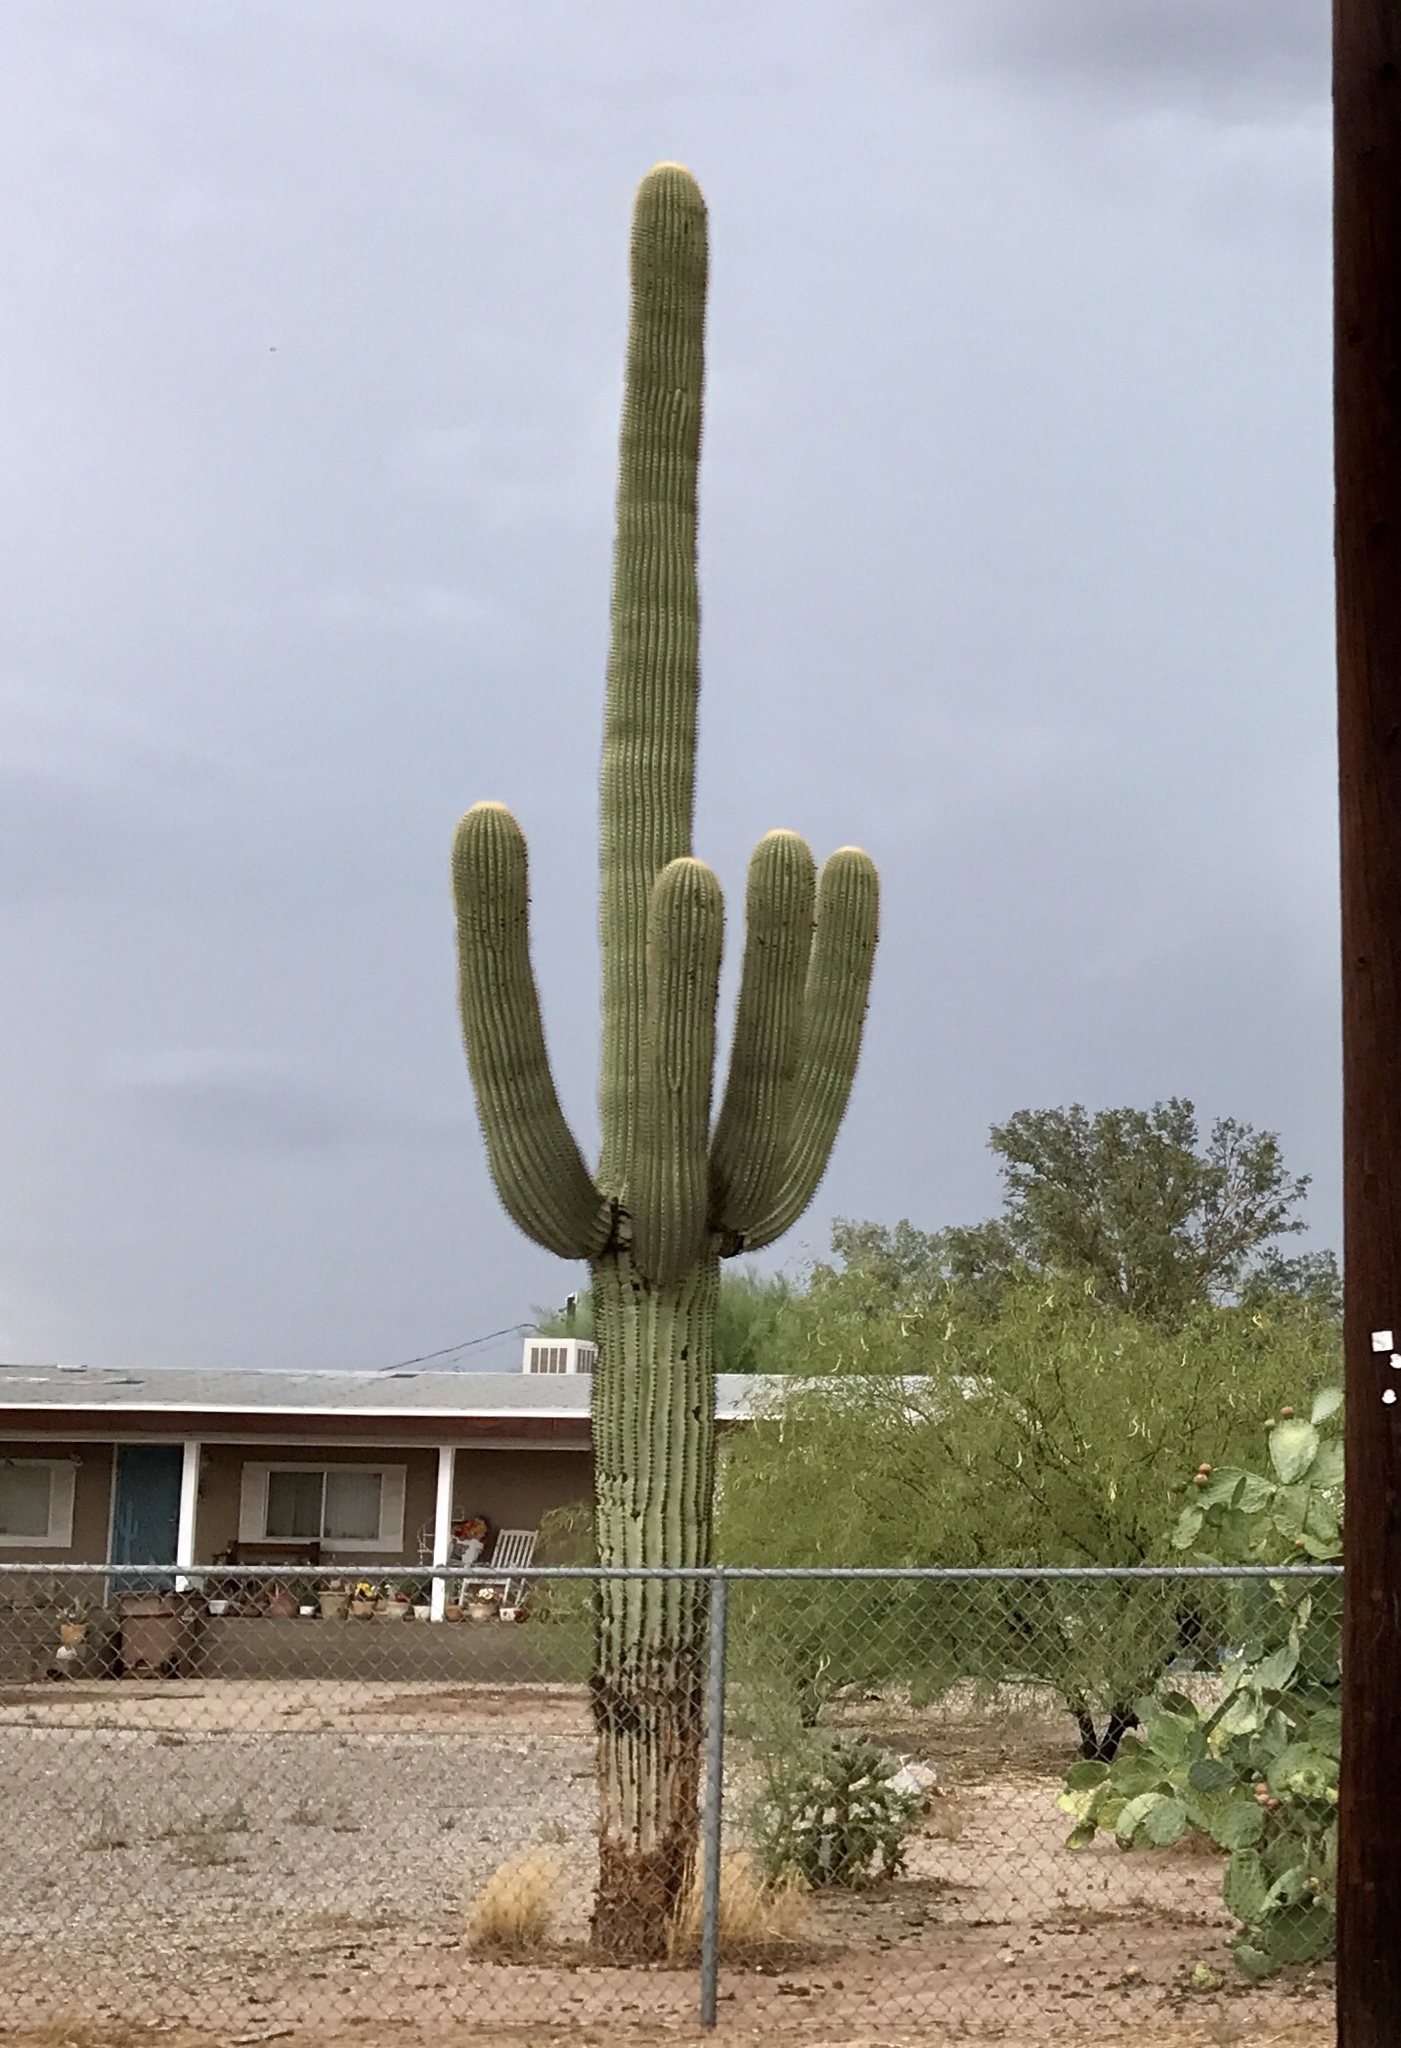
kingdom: Plantae
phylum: Tracheophyta
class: Magnoliopsida
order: Caryophyllales
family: Cactaceae
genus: Carnegiea
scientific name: Carnegiea gigantea
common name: Saguaro
